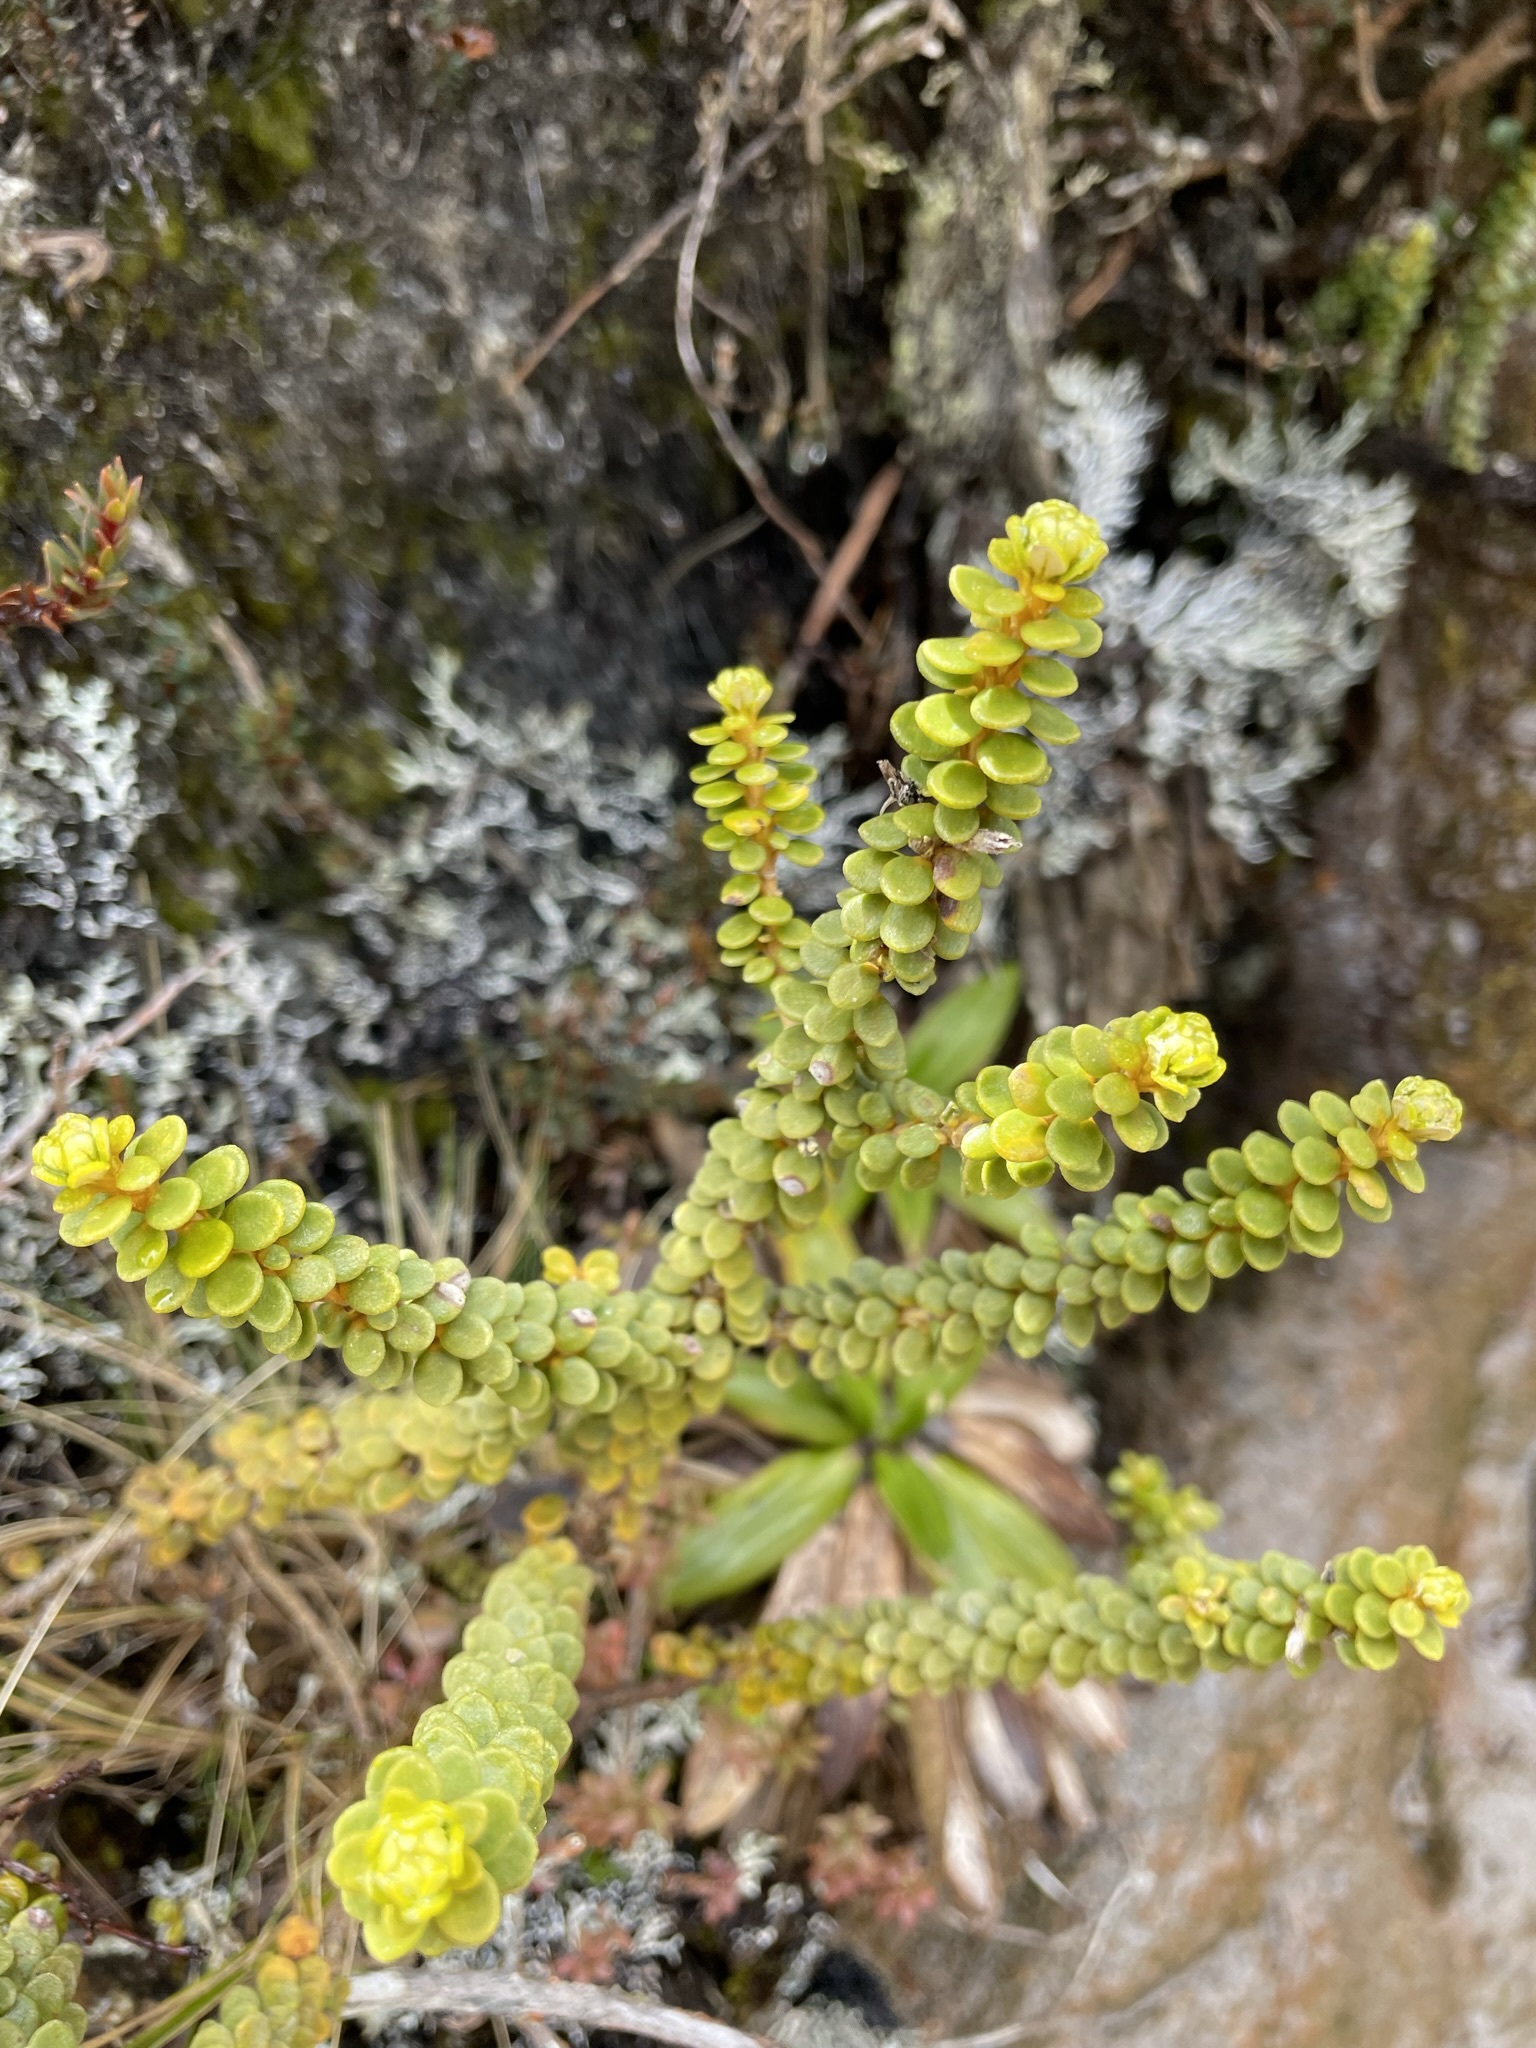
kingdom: Plantae
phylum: Tracheophyta
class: Magnoliopsida
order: Asterales
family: Asteraceae
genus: Olearia
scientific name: Olearia nummularifolia
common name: Sticky daisybush
